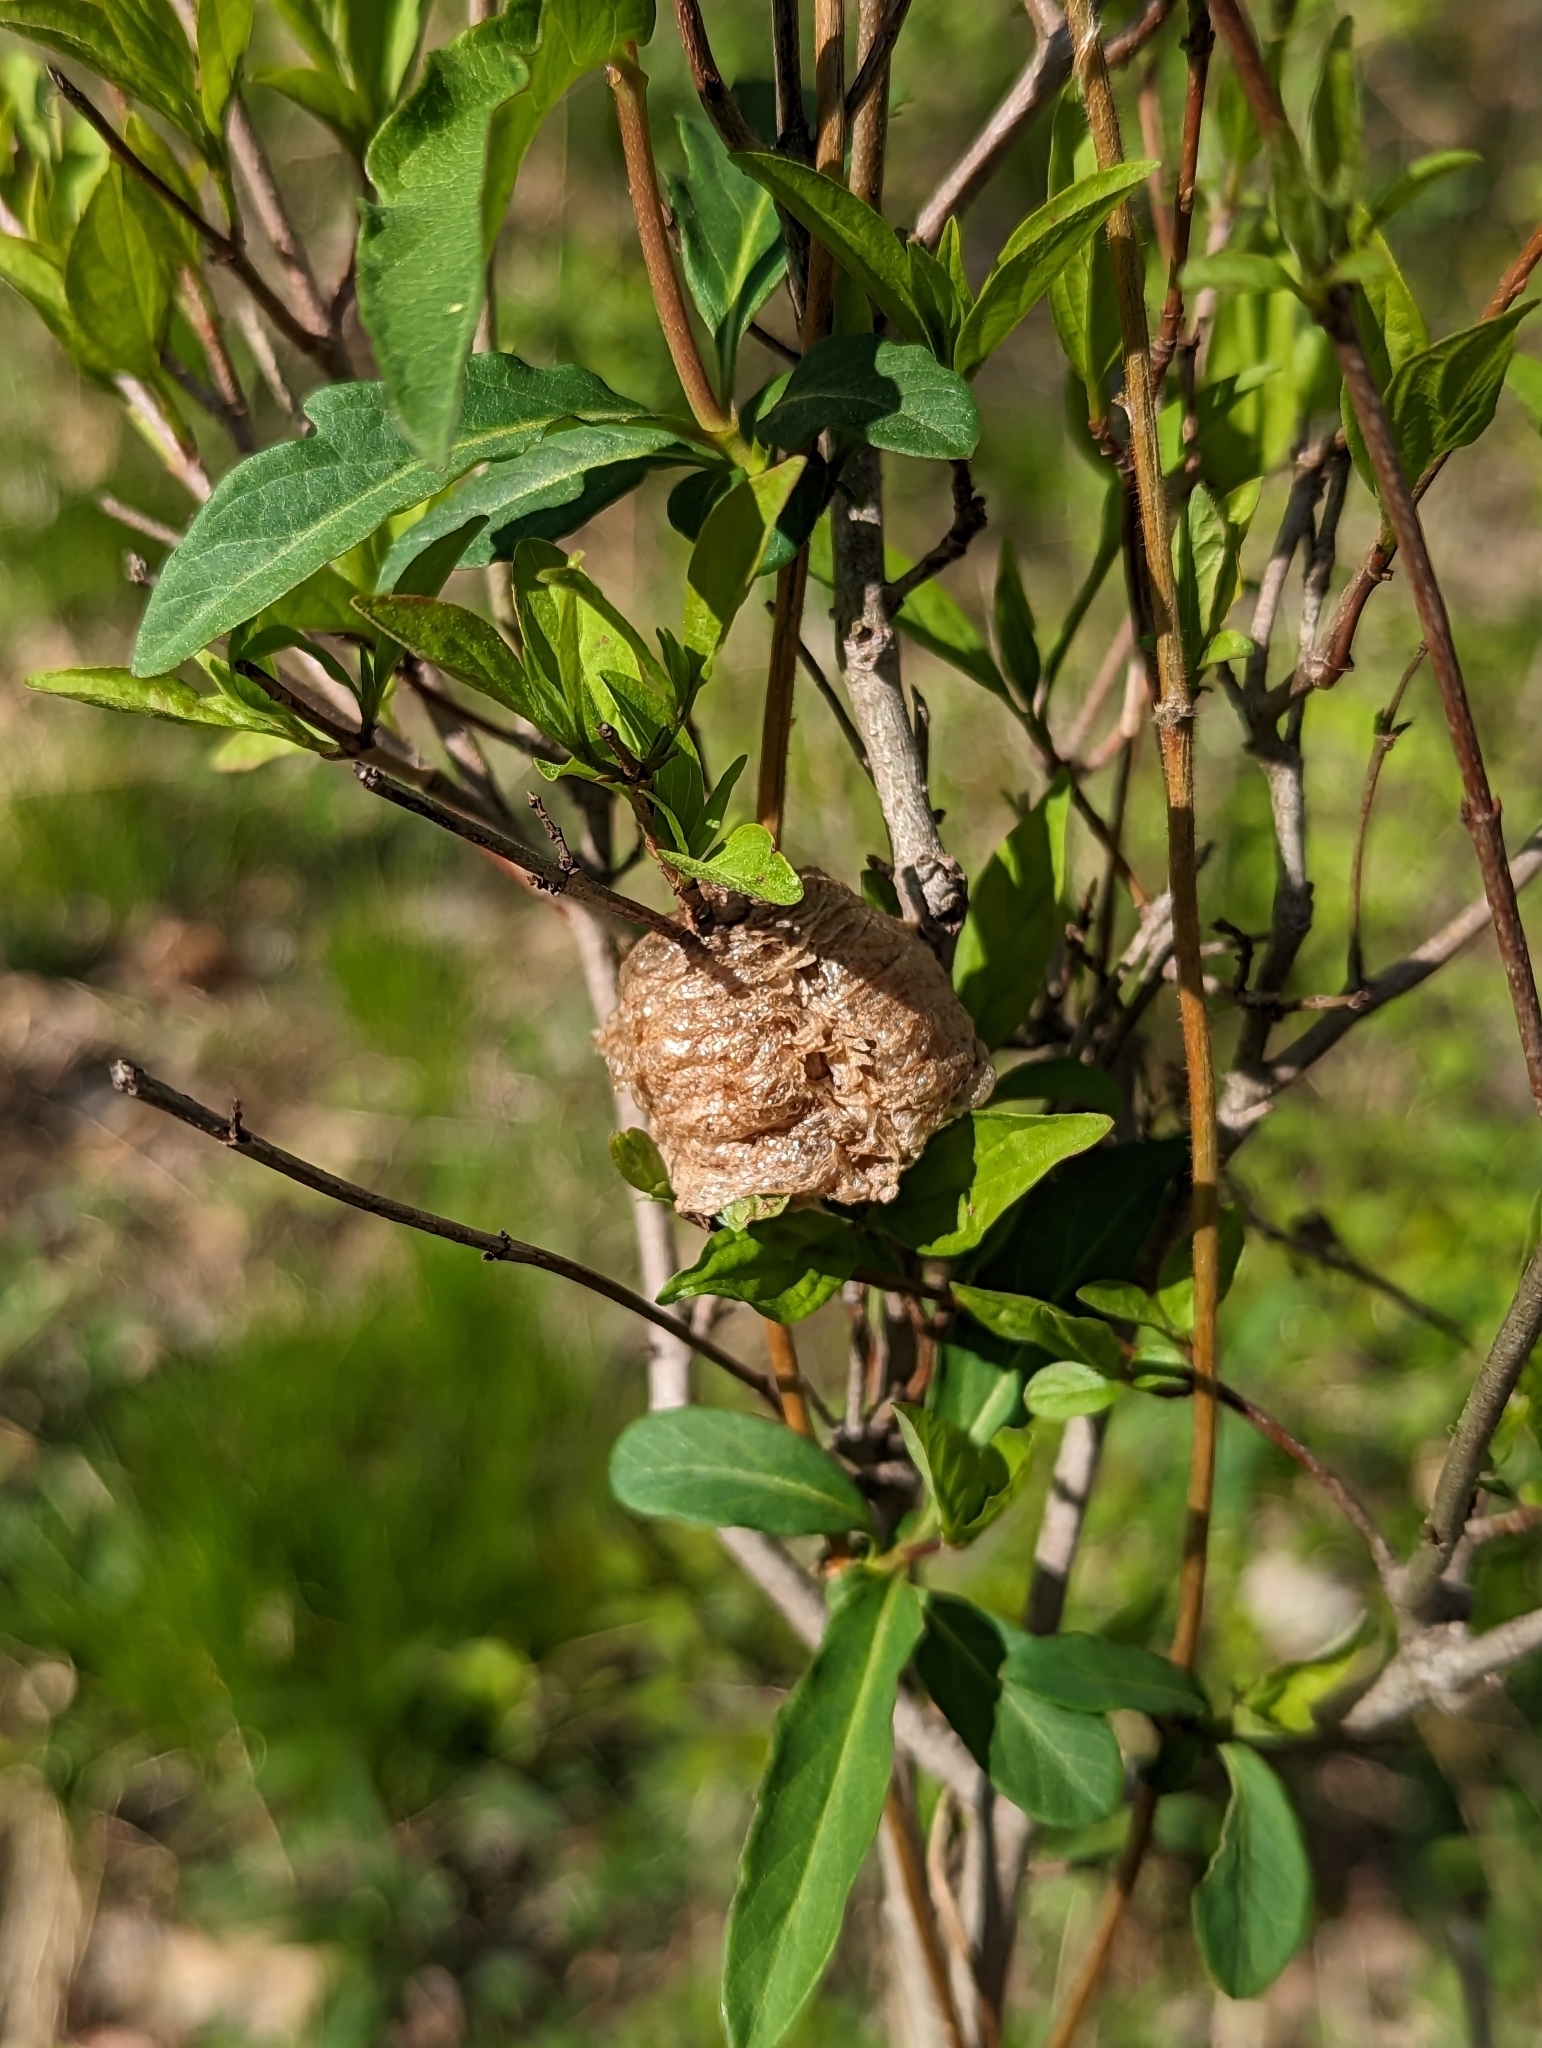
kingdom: Animalia
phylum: Arthropoda
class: Insecta
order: Mantodea
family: Mantidae
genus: Tenodera
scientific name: Tenodera sinensis
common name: Chinese mantis
